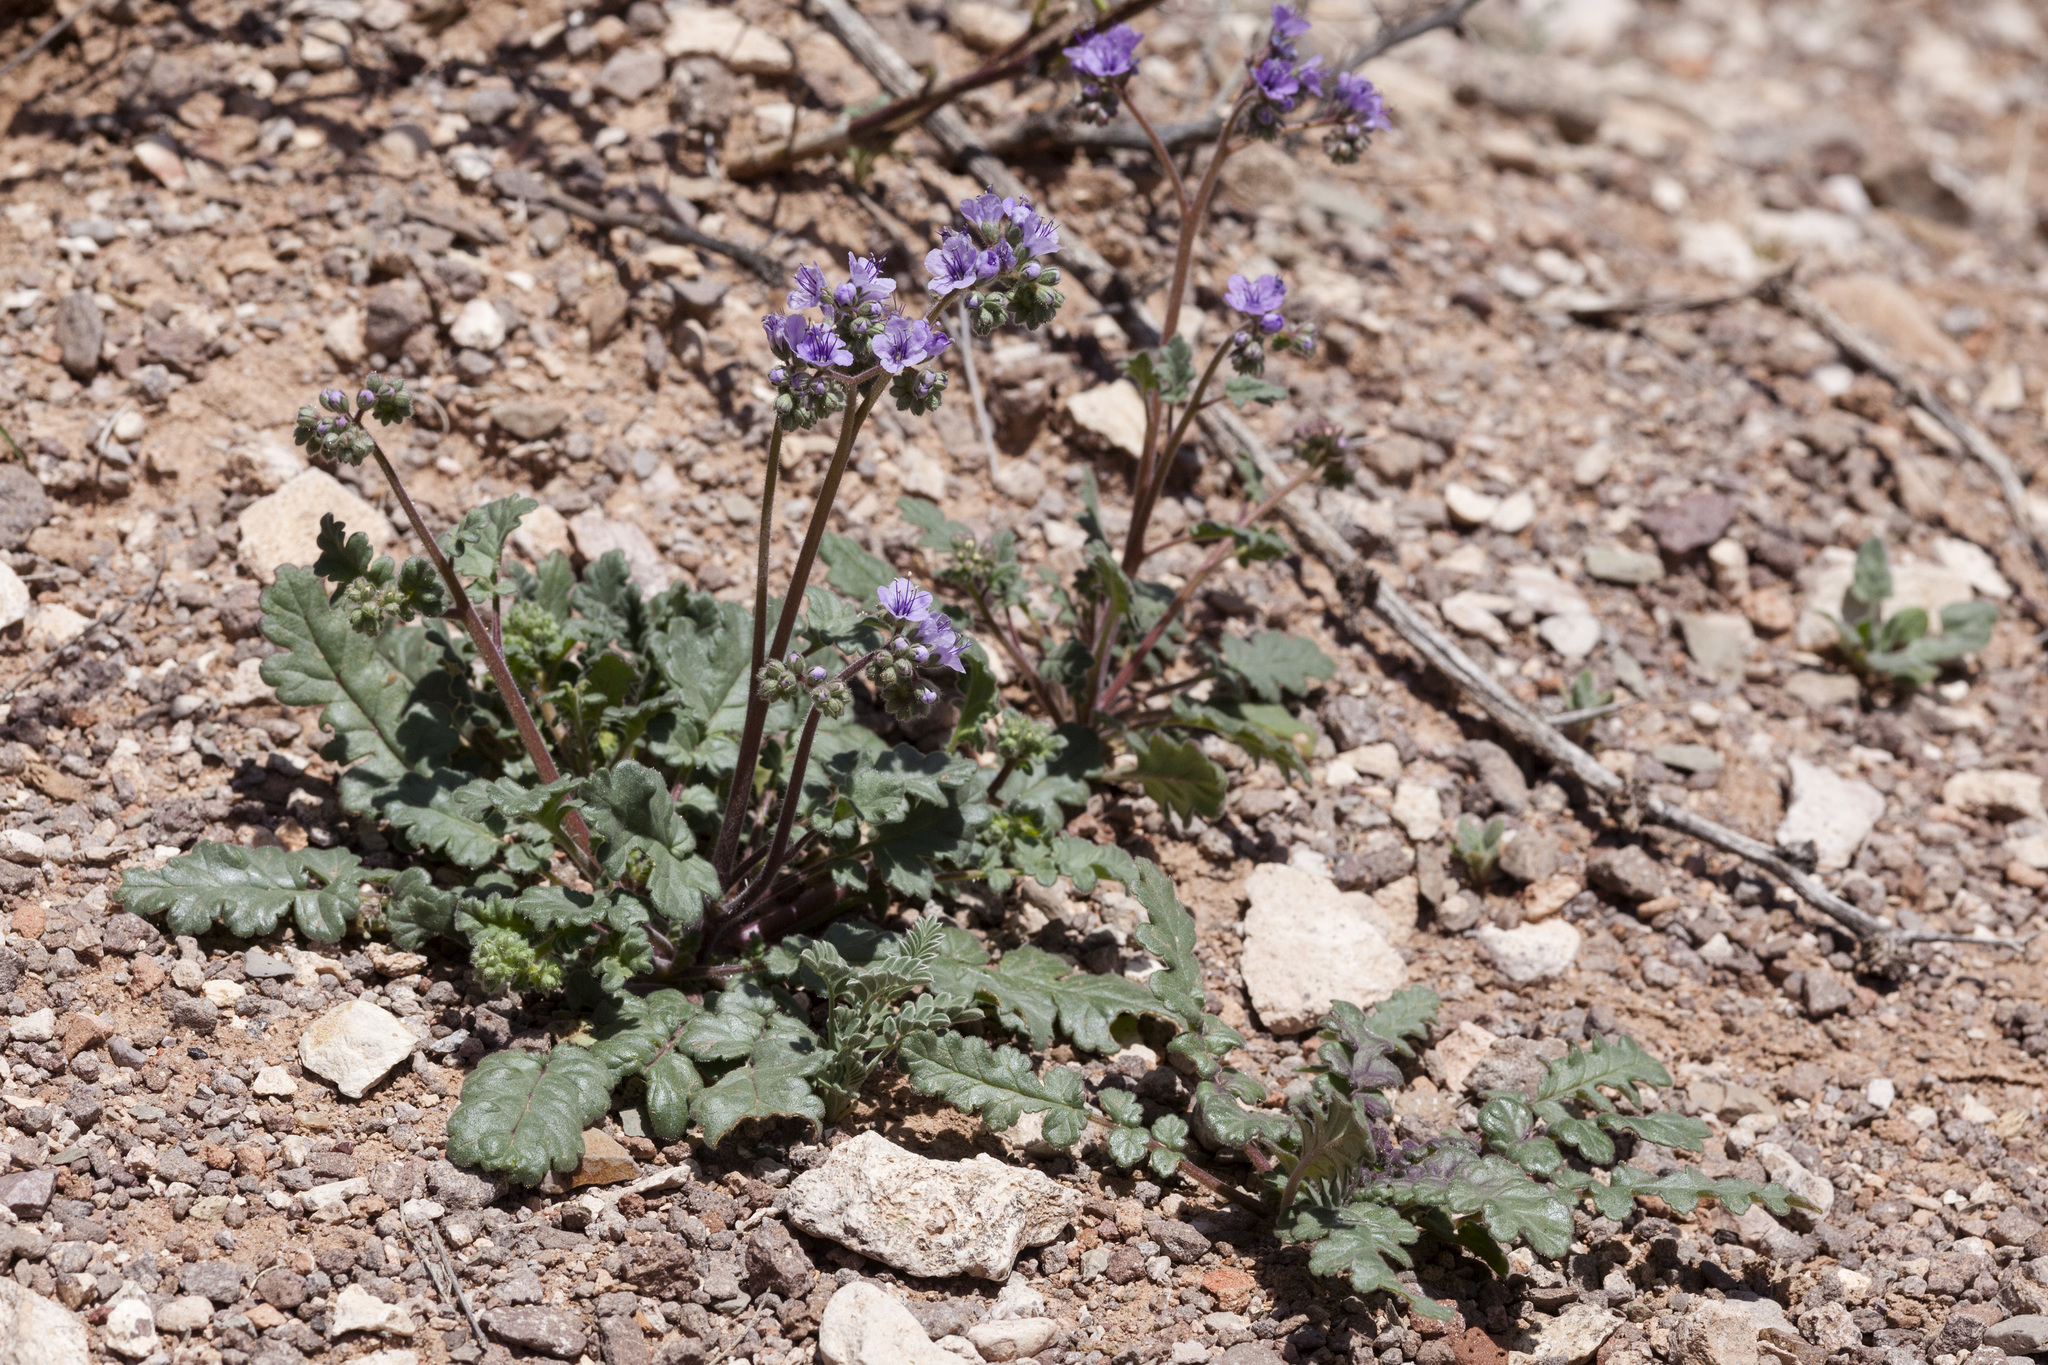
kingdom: Plantae
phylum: Tracheophyta
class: Magnoliopsida
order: Boraginales
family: Hydrophyllaceae
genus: Phacelia
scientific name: Phacelia bombycina
